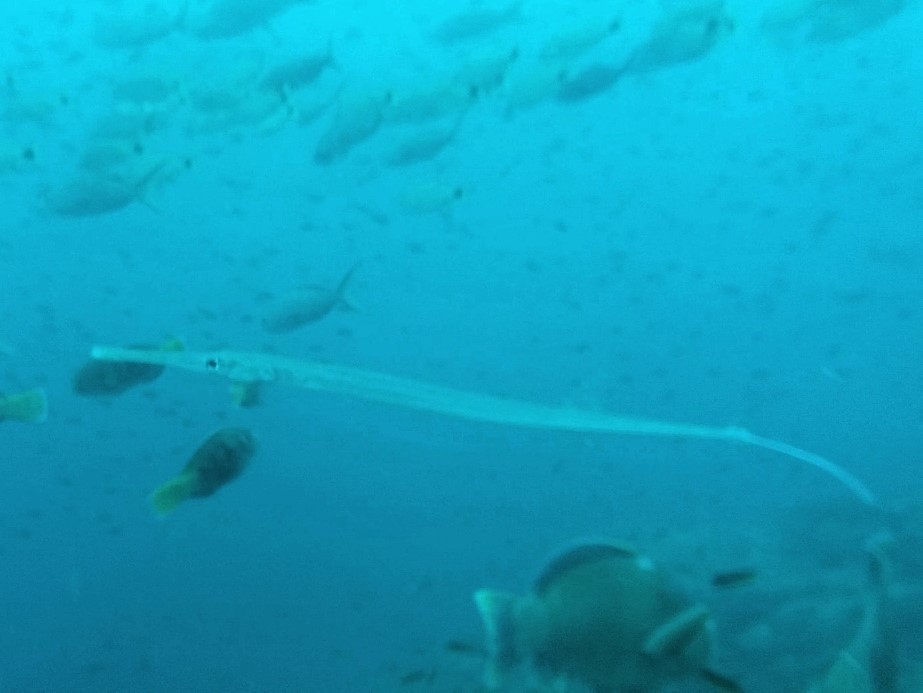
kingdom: Animalia
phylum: Chordata
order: Syngnathiformes
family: Fistulariidae
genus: Fistularia
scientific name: Fistularia commersonii
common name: Bluespotted cornetfish
